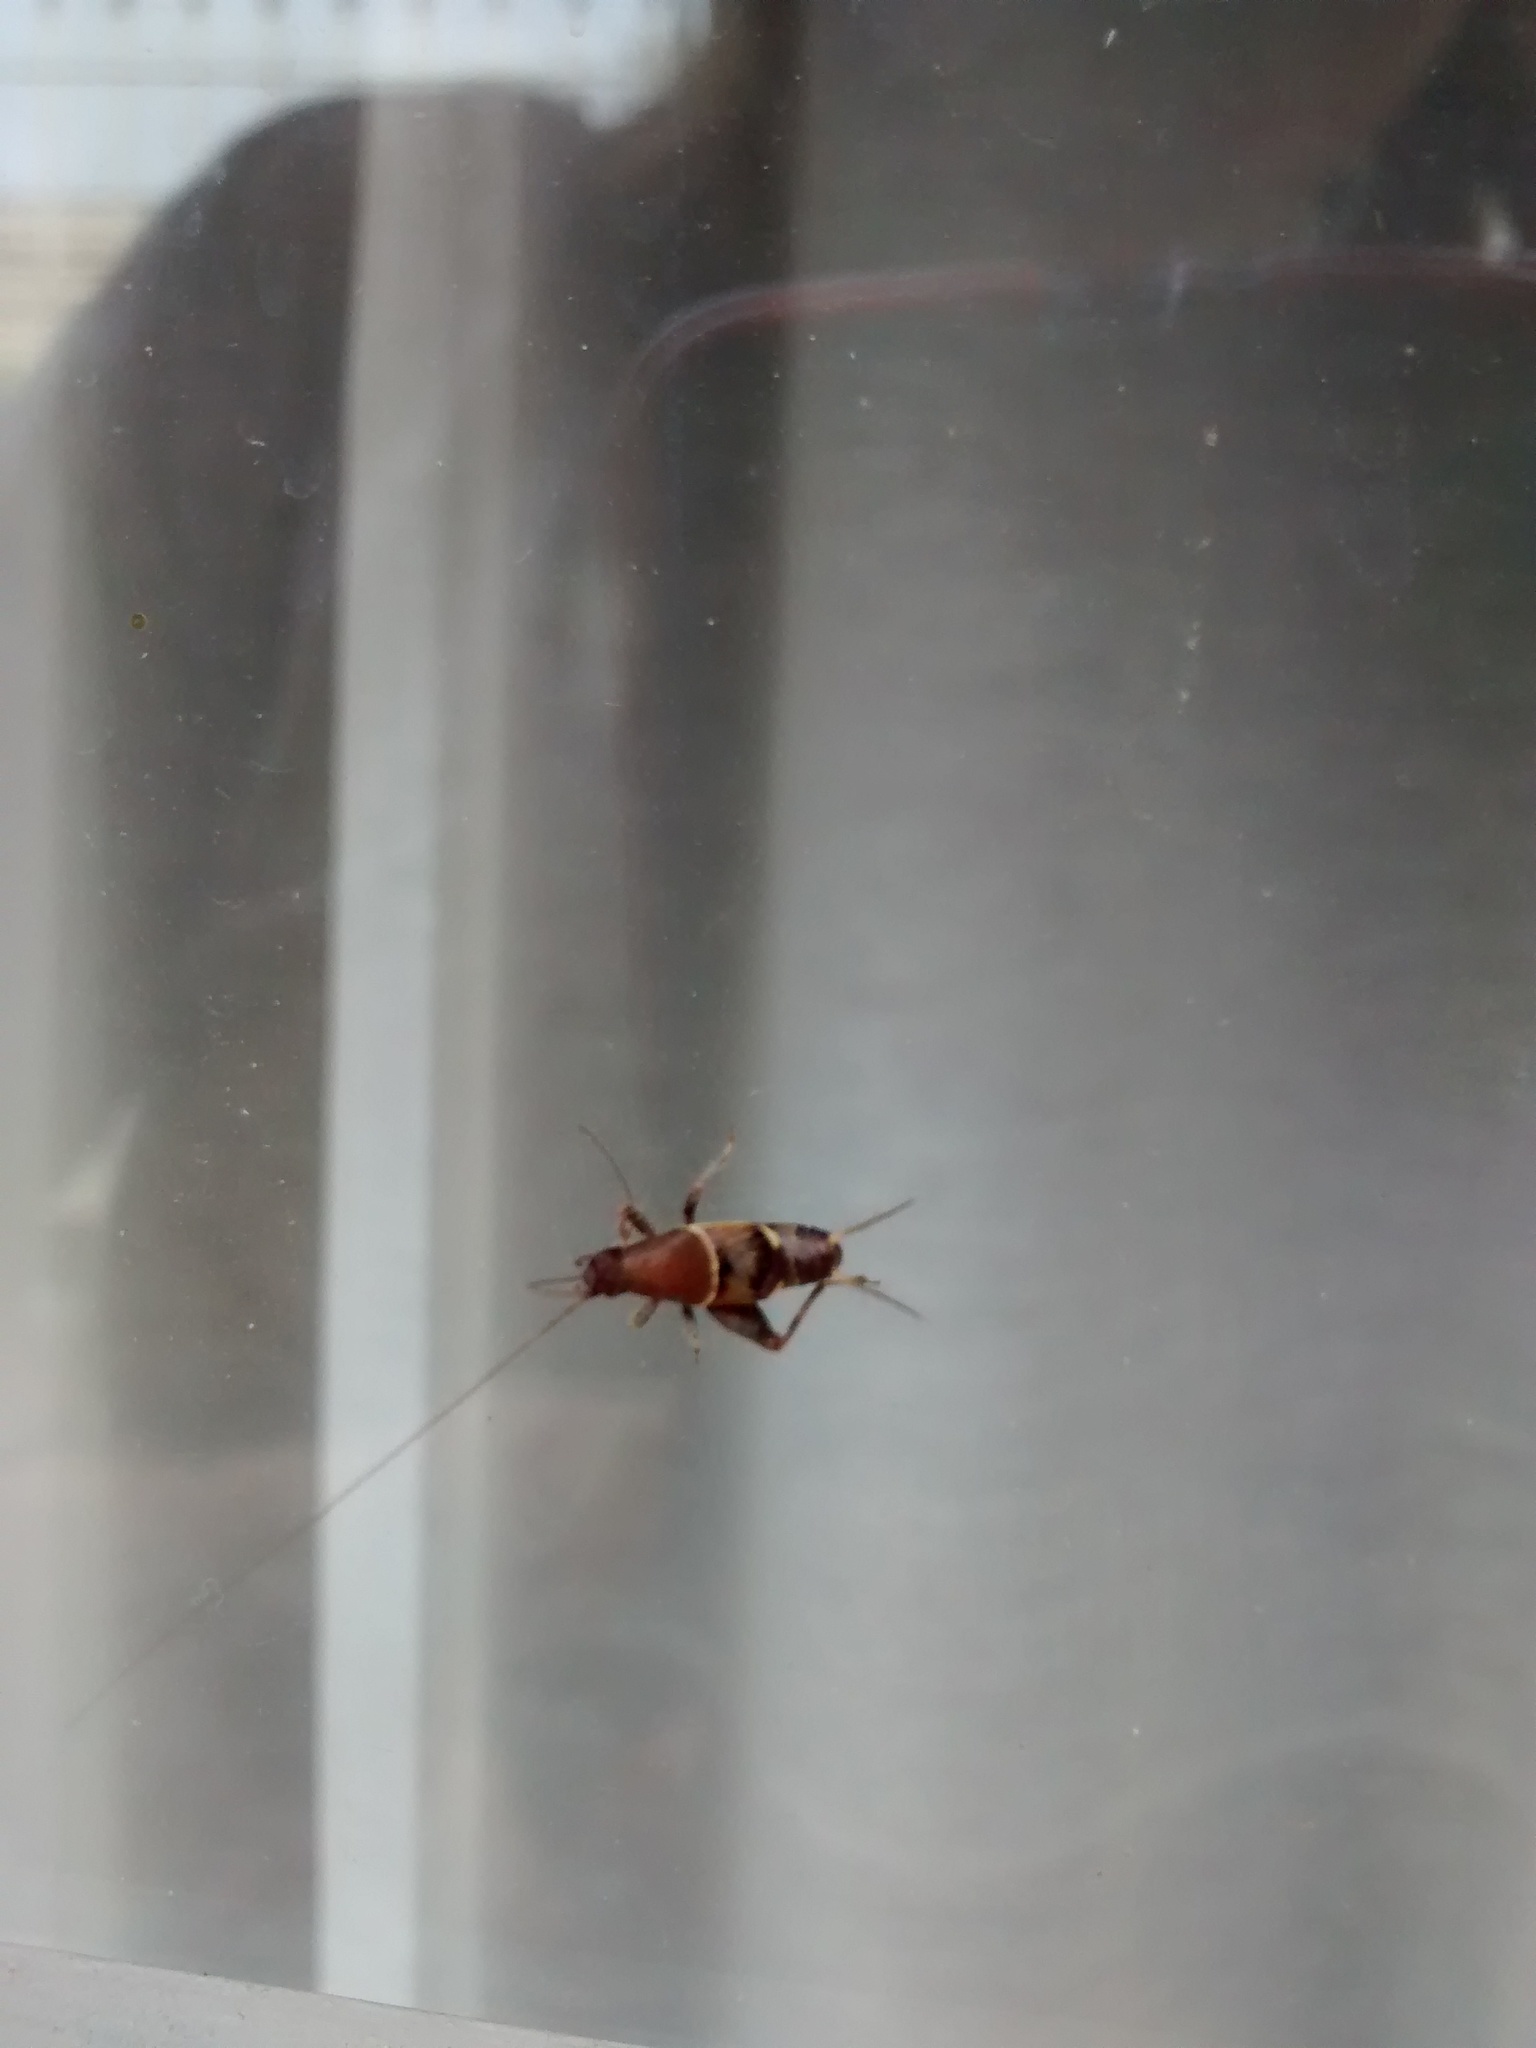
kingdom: Animalia
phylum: Arthropoda
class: Insecta
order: Orthoptera
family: Mogoplistidae
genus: Ornebius
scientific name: Ornebius alatus
